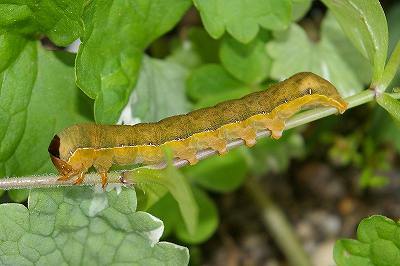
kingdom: Animalia
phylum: Arthropoda
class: Insecta
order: Lepidoptera
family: Noctuidae
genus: Xylena
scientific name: Xylena formosa
